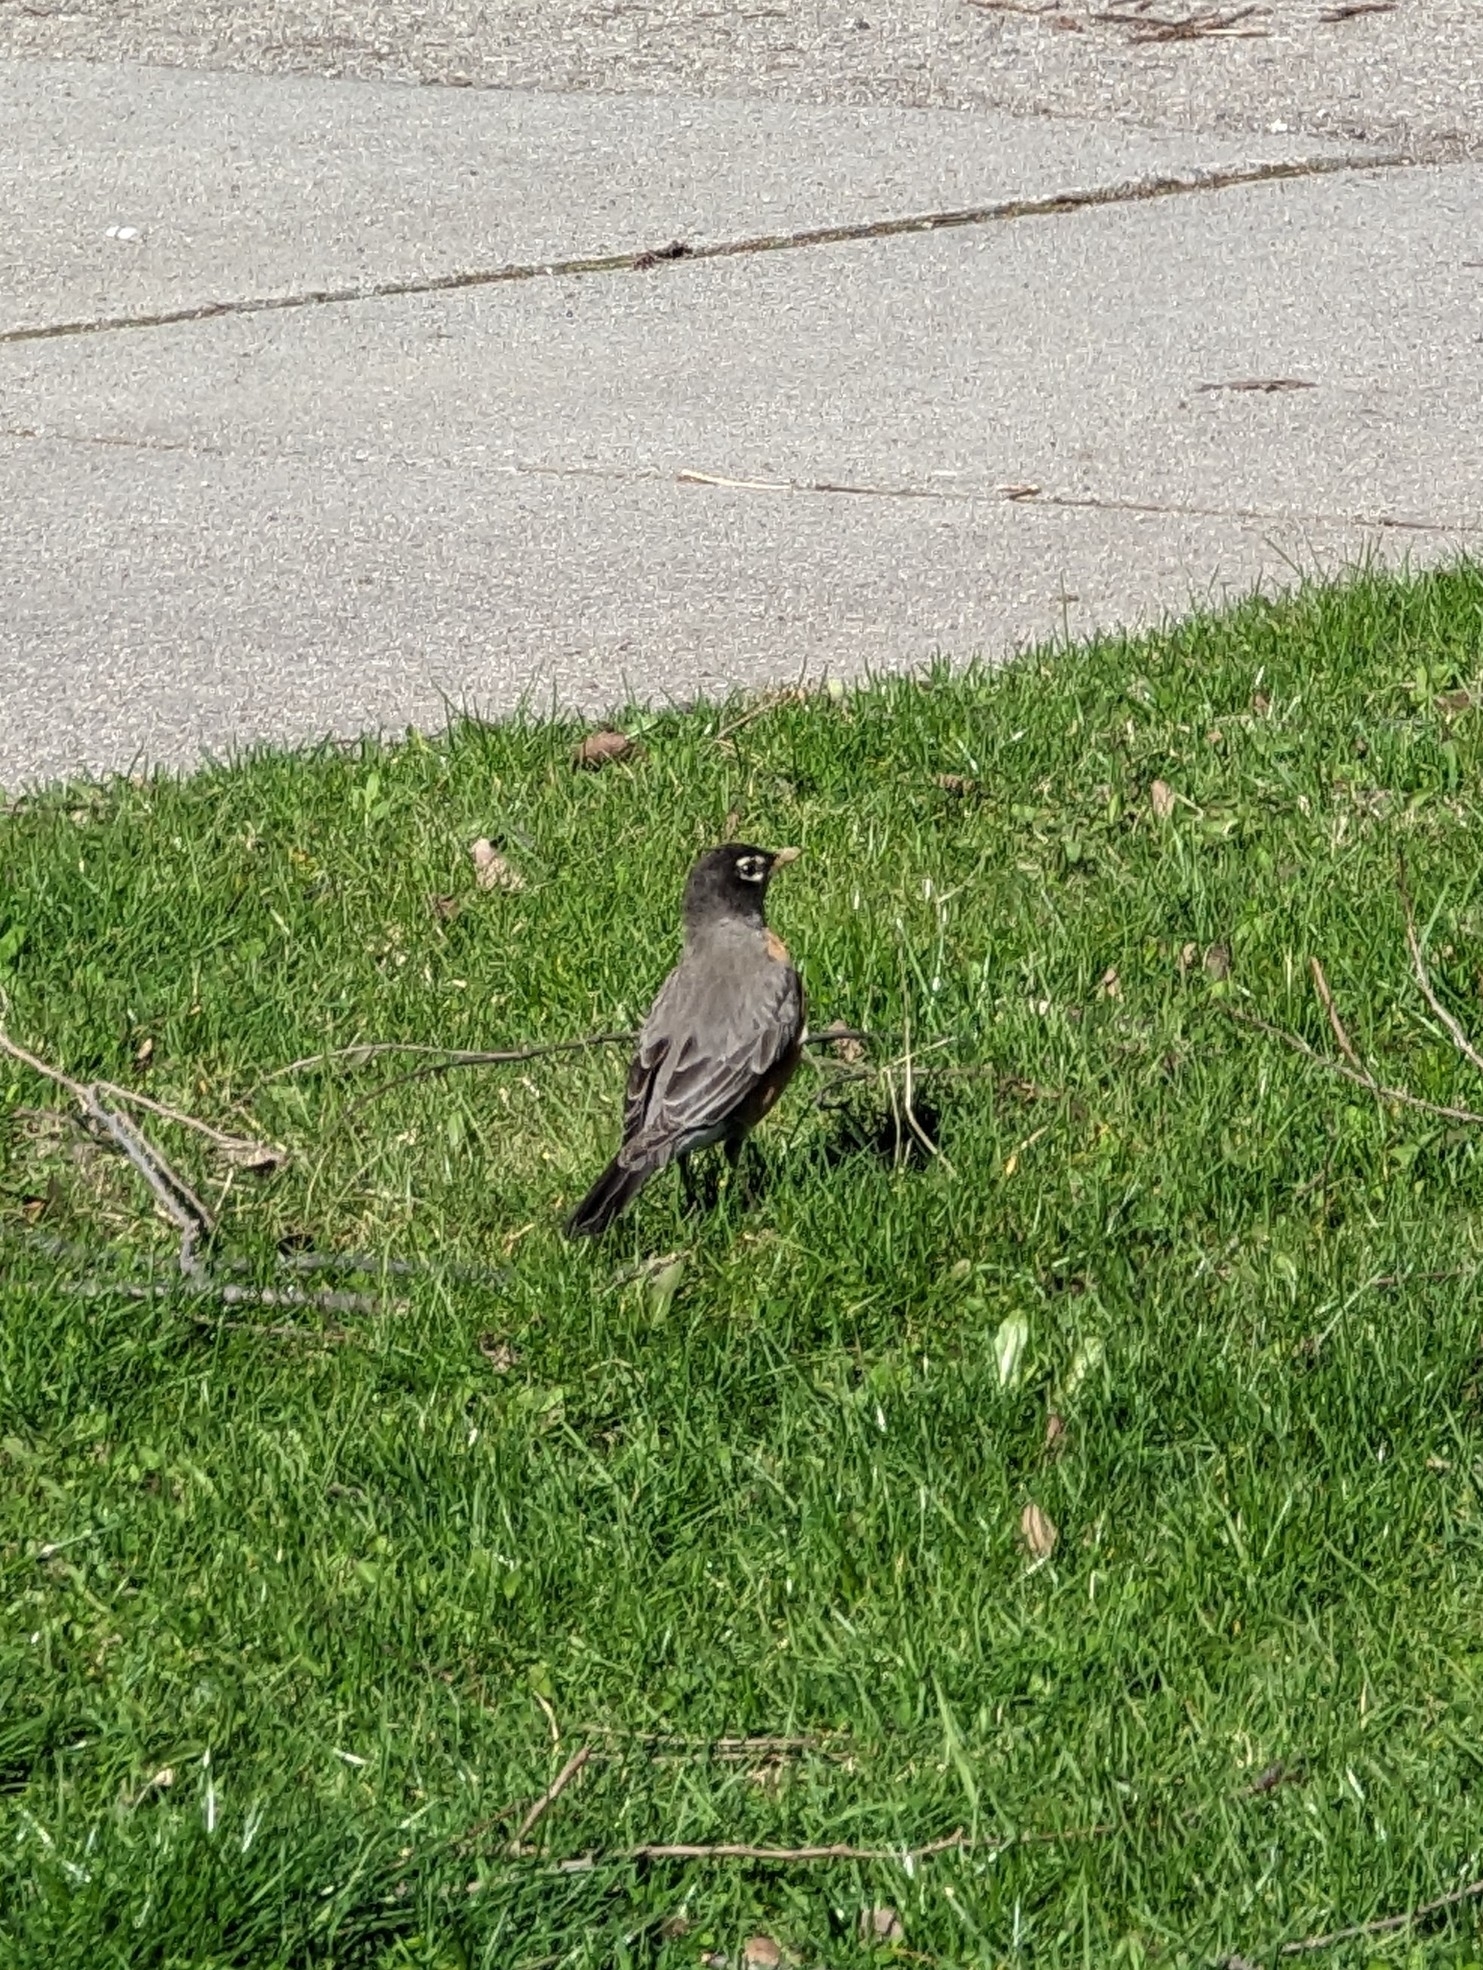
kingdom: Animalia
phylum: Chordata
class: Aves
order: Passeriformes
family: Turdidae
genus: Turdus
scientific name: Turdus migratorius
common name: American robin
